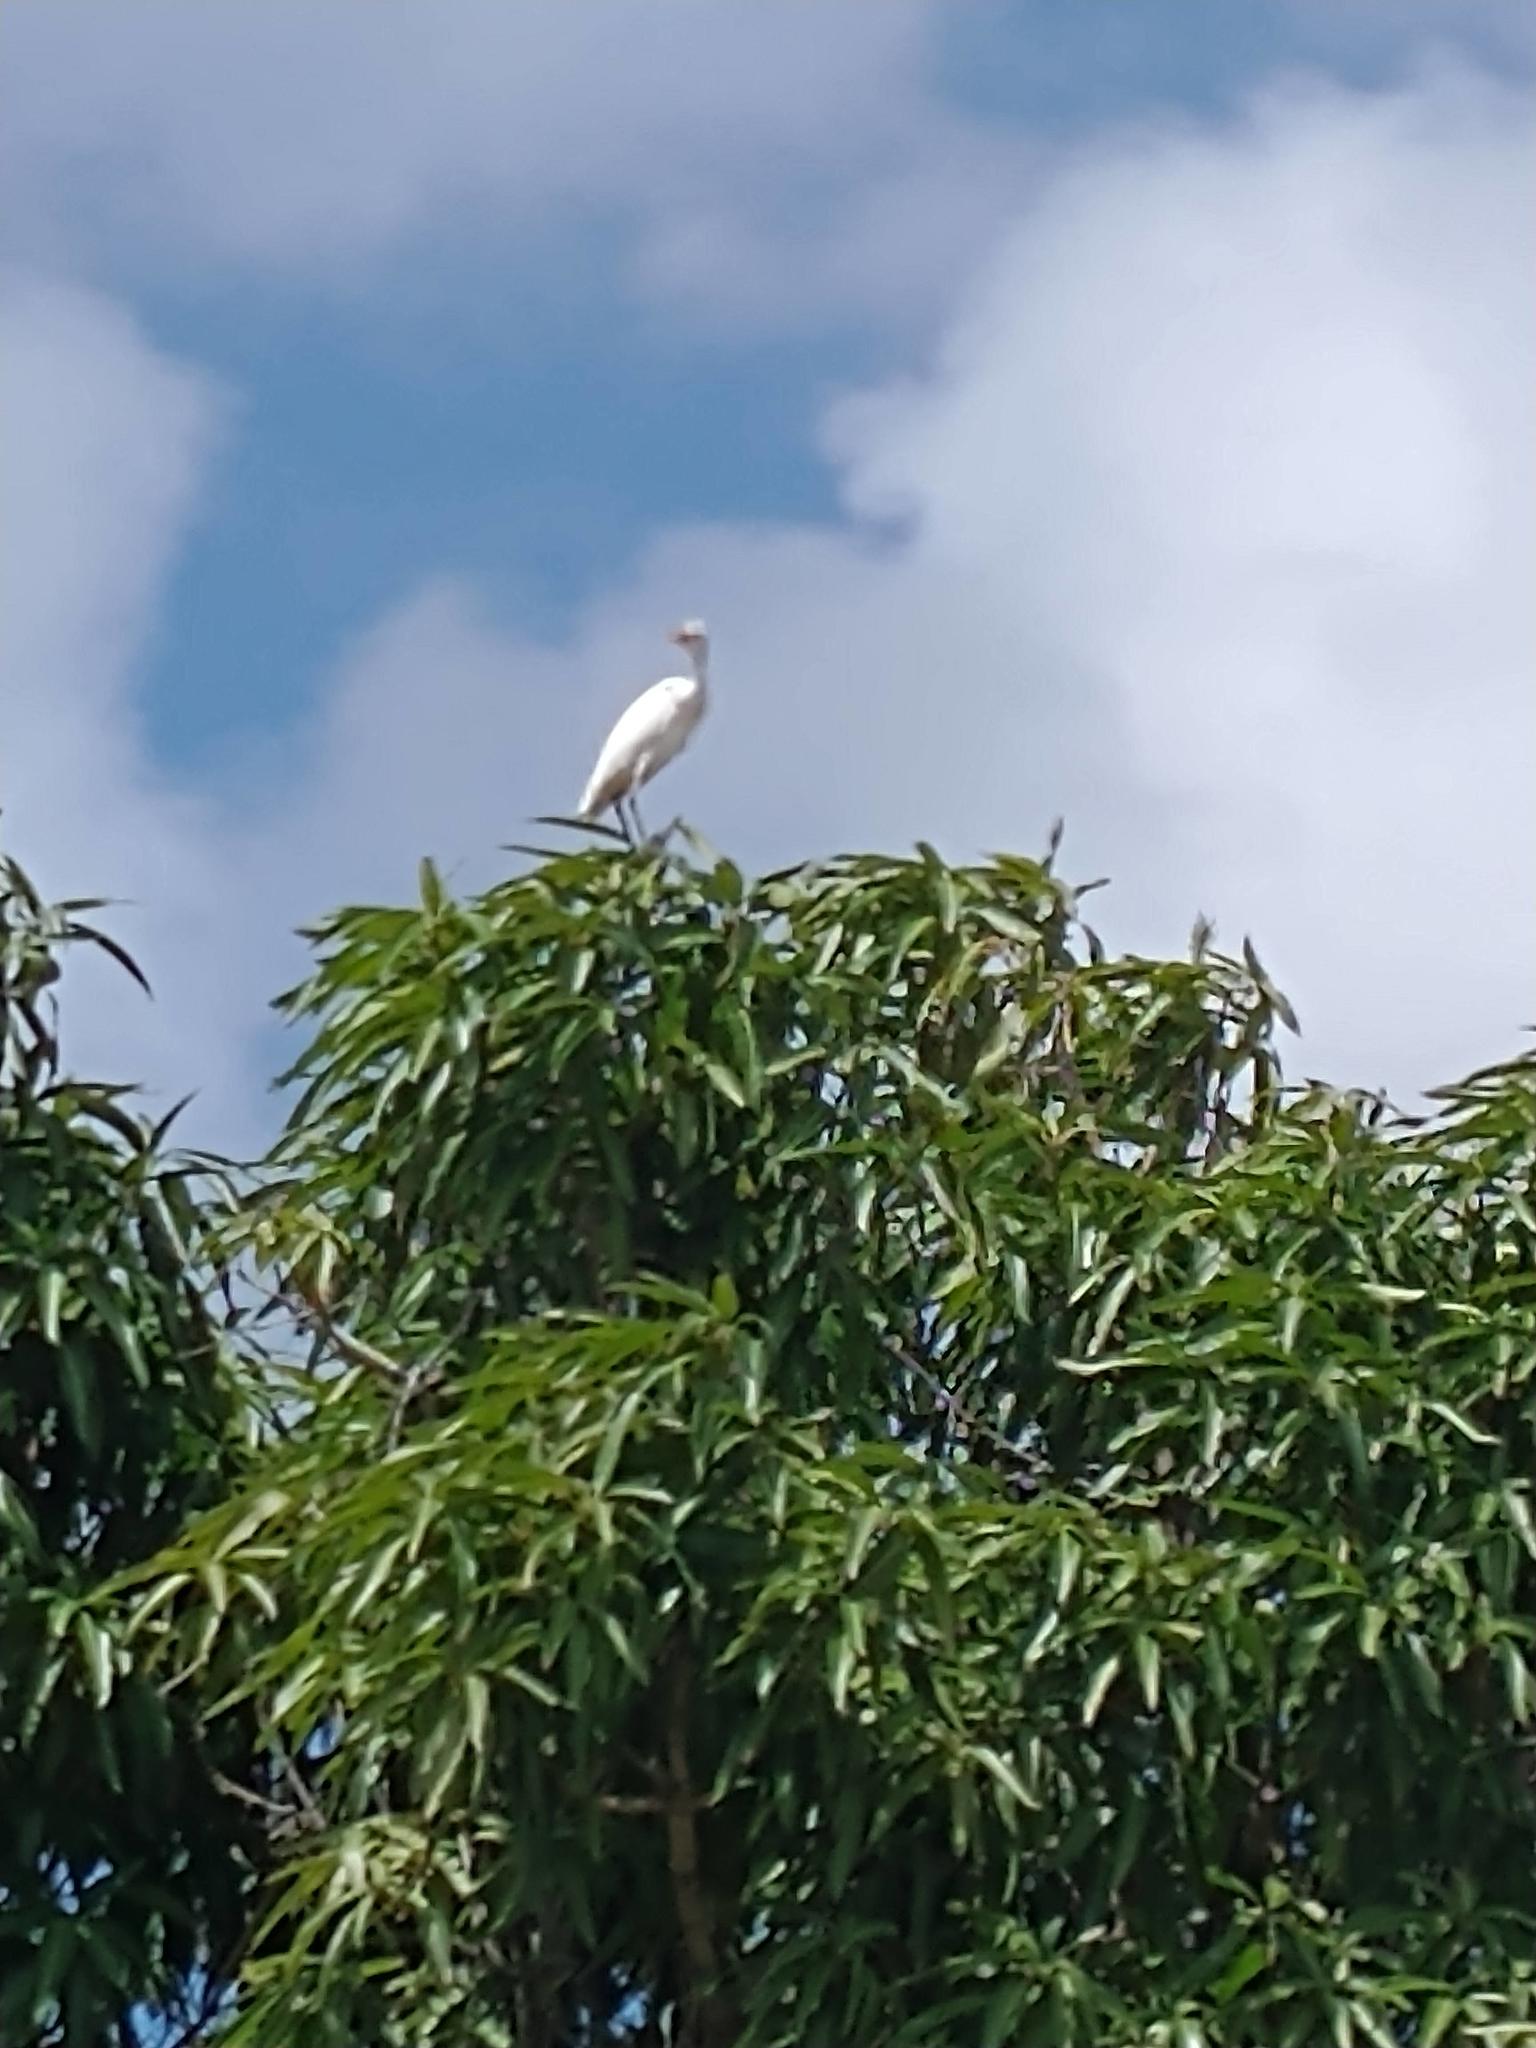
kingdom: Animalia
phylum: Chordata
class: Aves
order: Pelecaniformes
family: Ardeidae
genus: Bubulcus
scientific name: Bubulcus ibis
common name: Cattle egret
